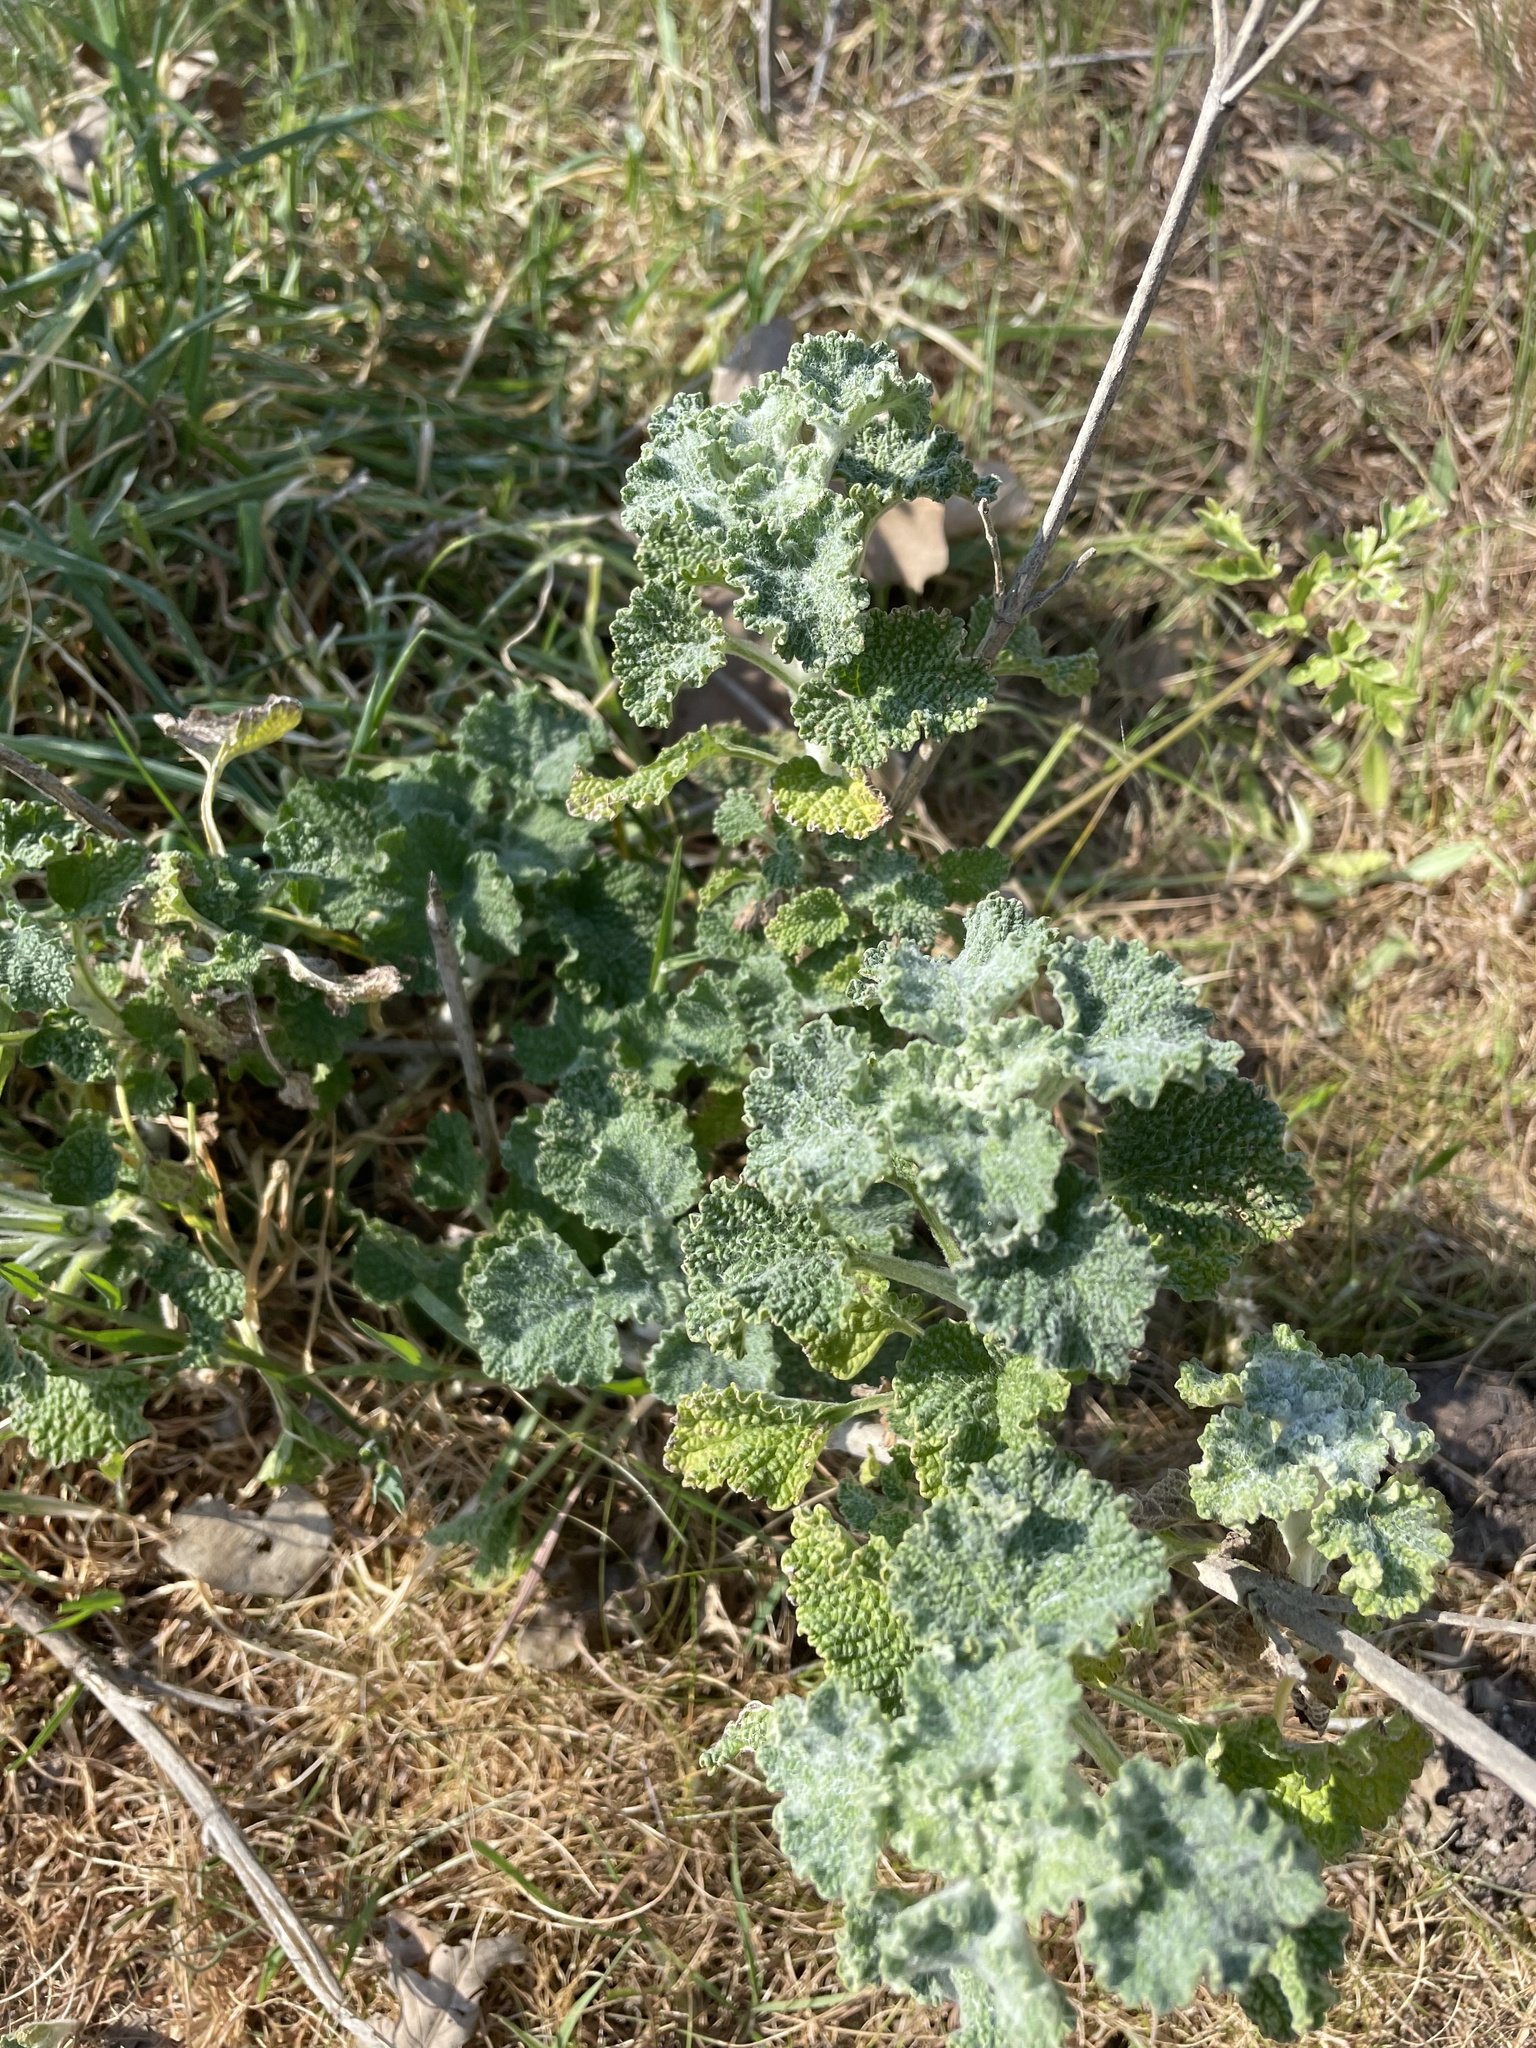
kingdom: Plantae
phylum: Tracheophyta
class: Magnoliopsida
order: Lamiales
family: Lamiaceae
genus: Marrubium
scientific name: Marrubium vulgare
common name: Horehound
